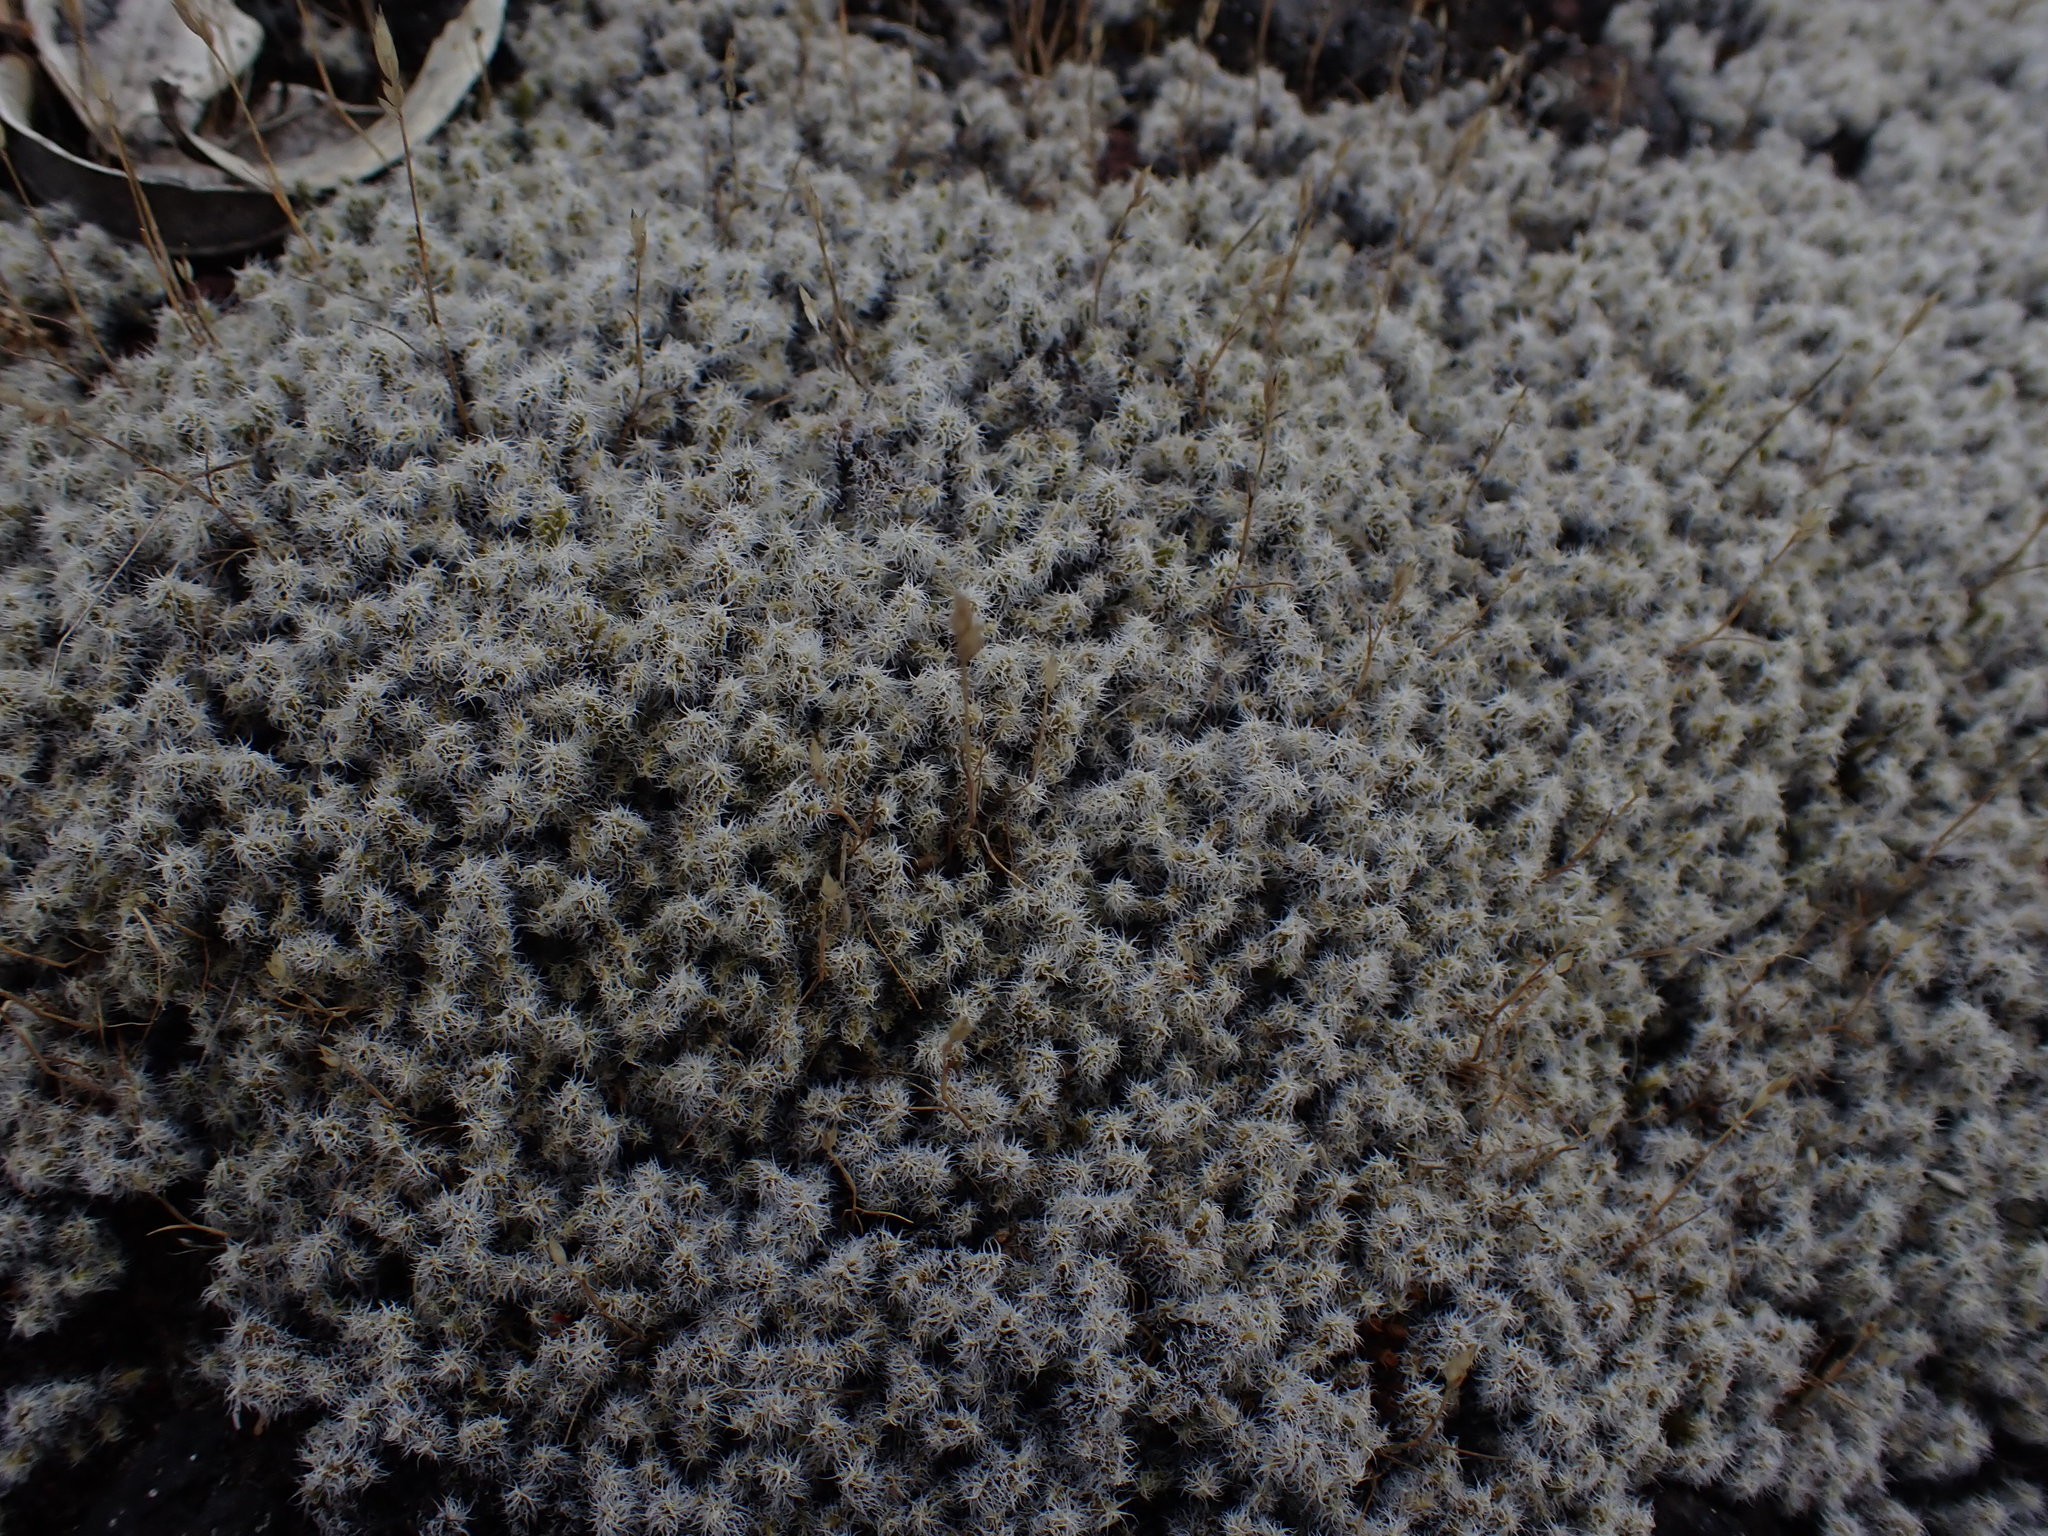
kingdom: Plantae
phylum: Bryophyta
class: Bryopsida
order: Grimmiales
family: Grimmiaceae
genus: Racomitrium
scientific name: Racomitrium lanuginosum
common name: Hoary rock moss
